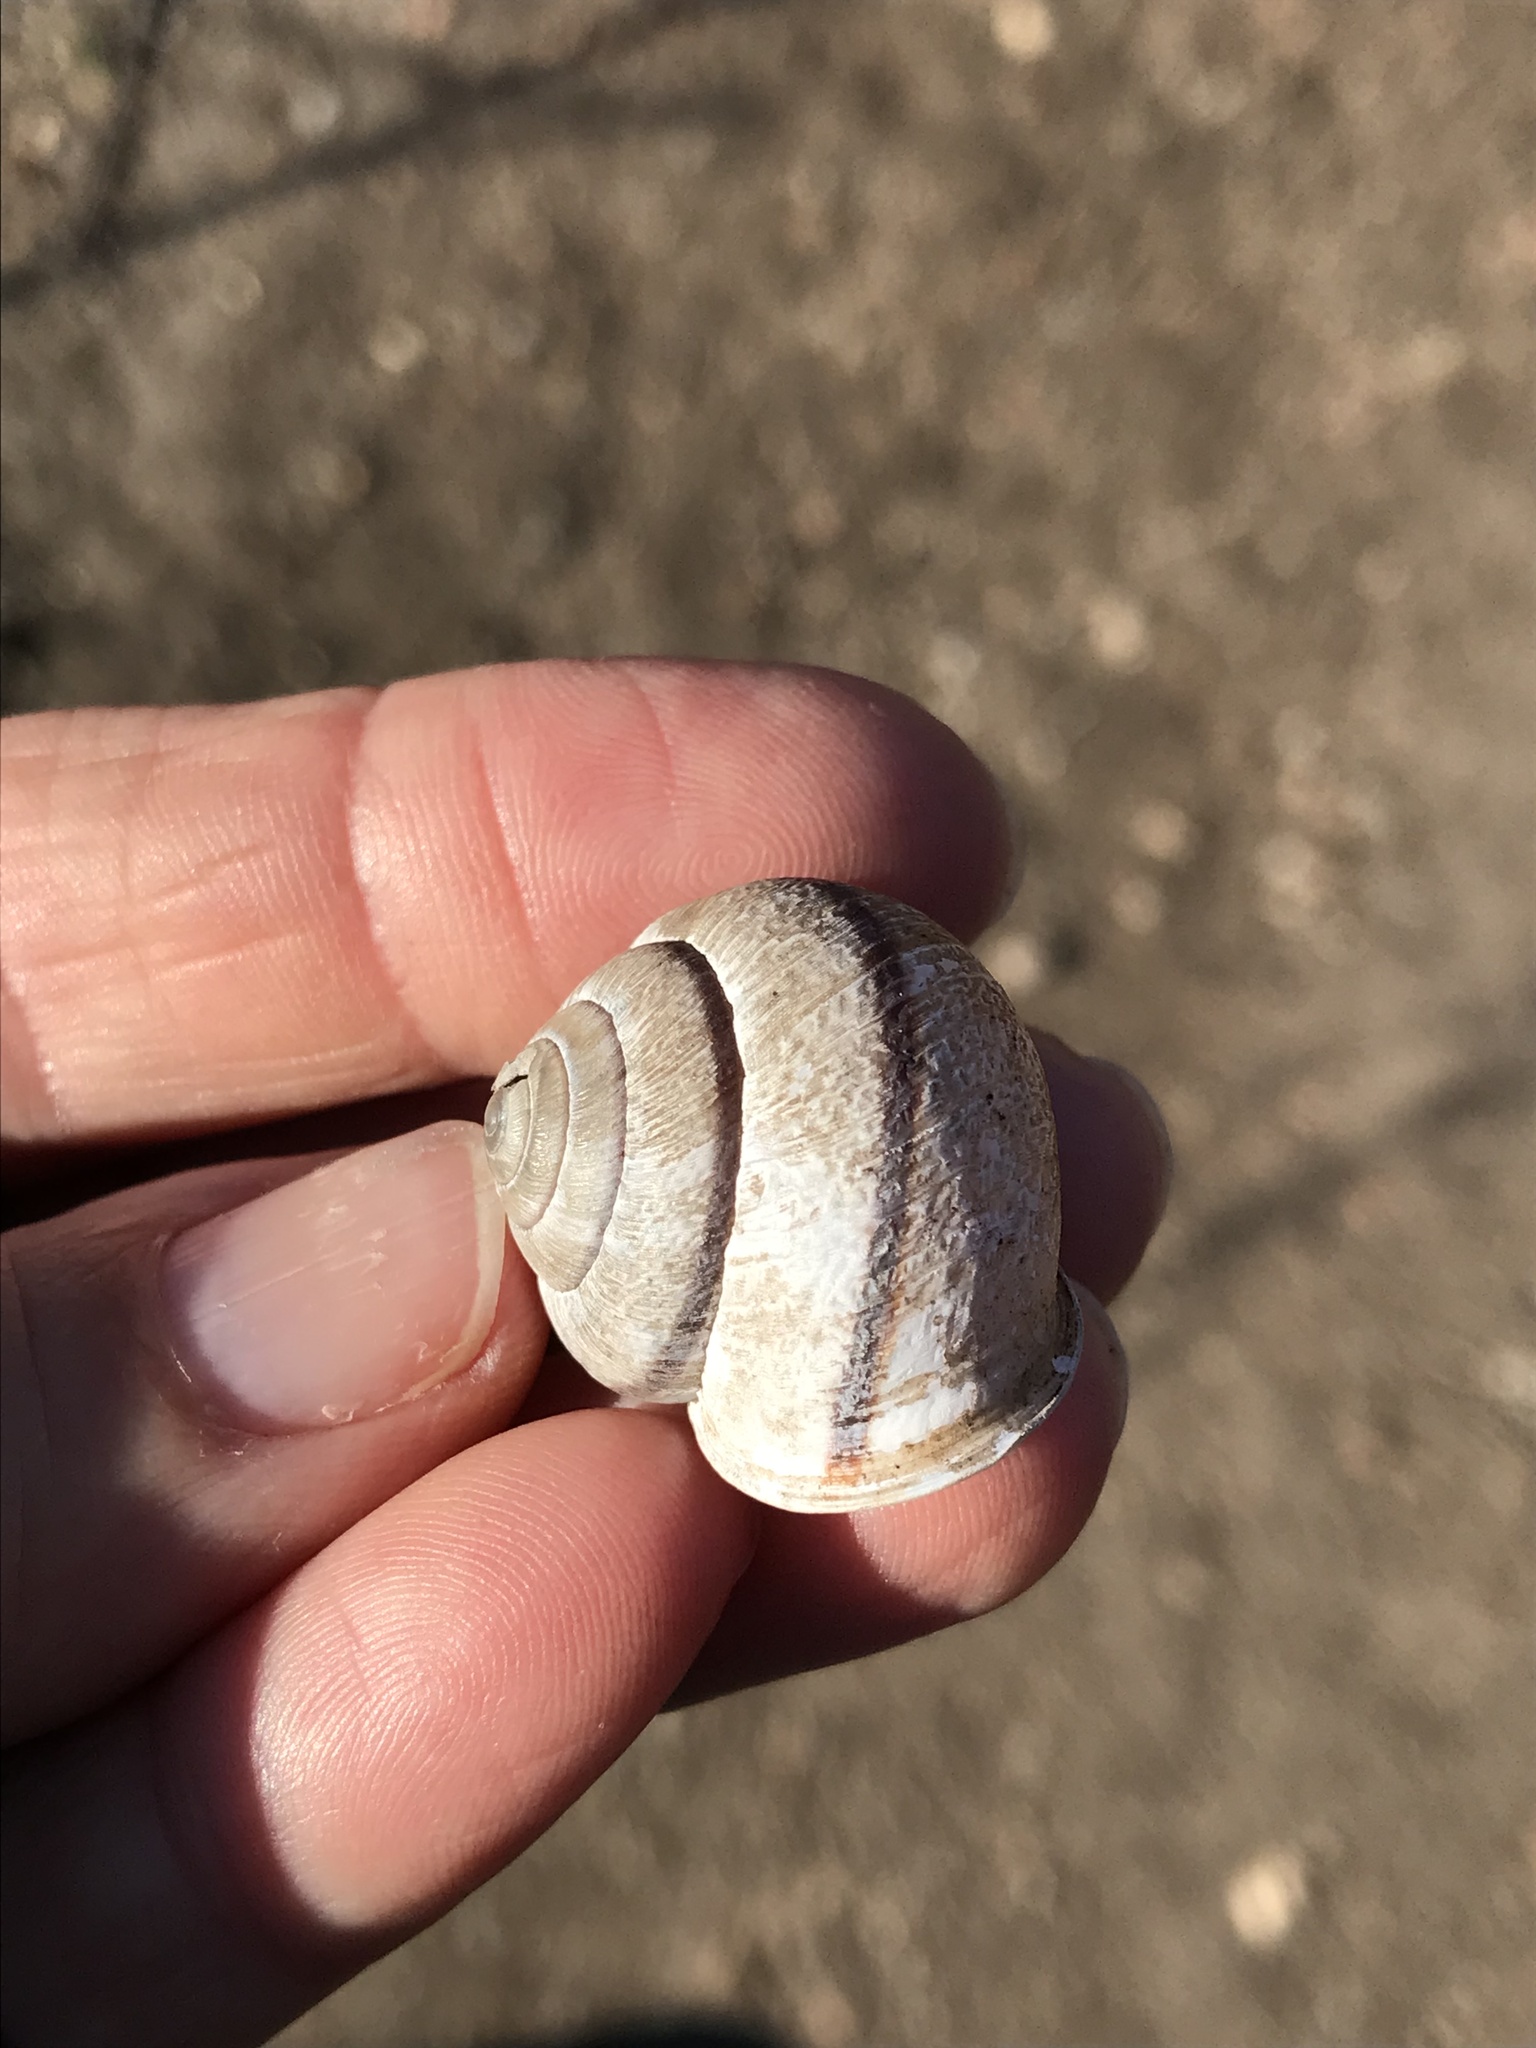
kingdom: Animalia
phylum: Mollusca
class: Gastropoda
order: Stylommatophora
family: Xanthonychidae
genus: Helminthoglypta
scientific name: Helminthoglypta stiversiana
